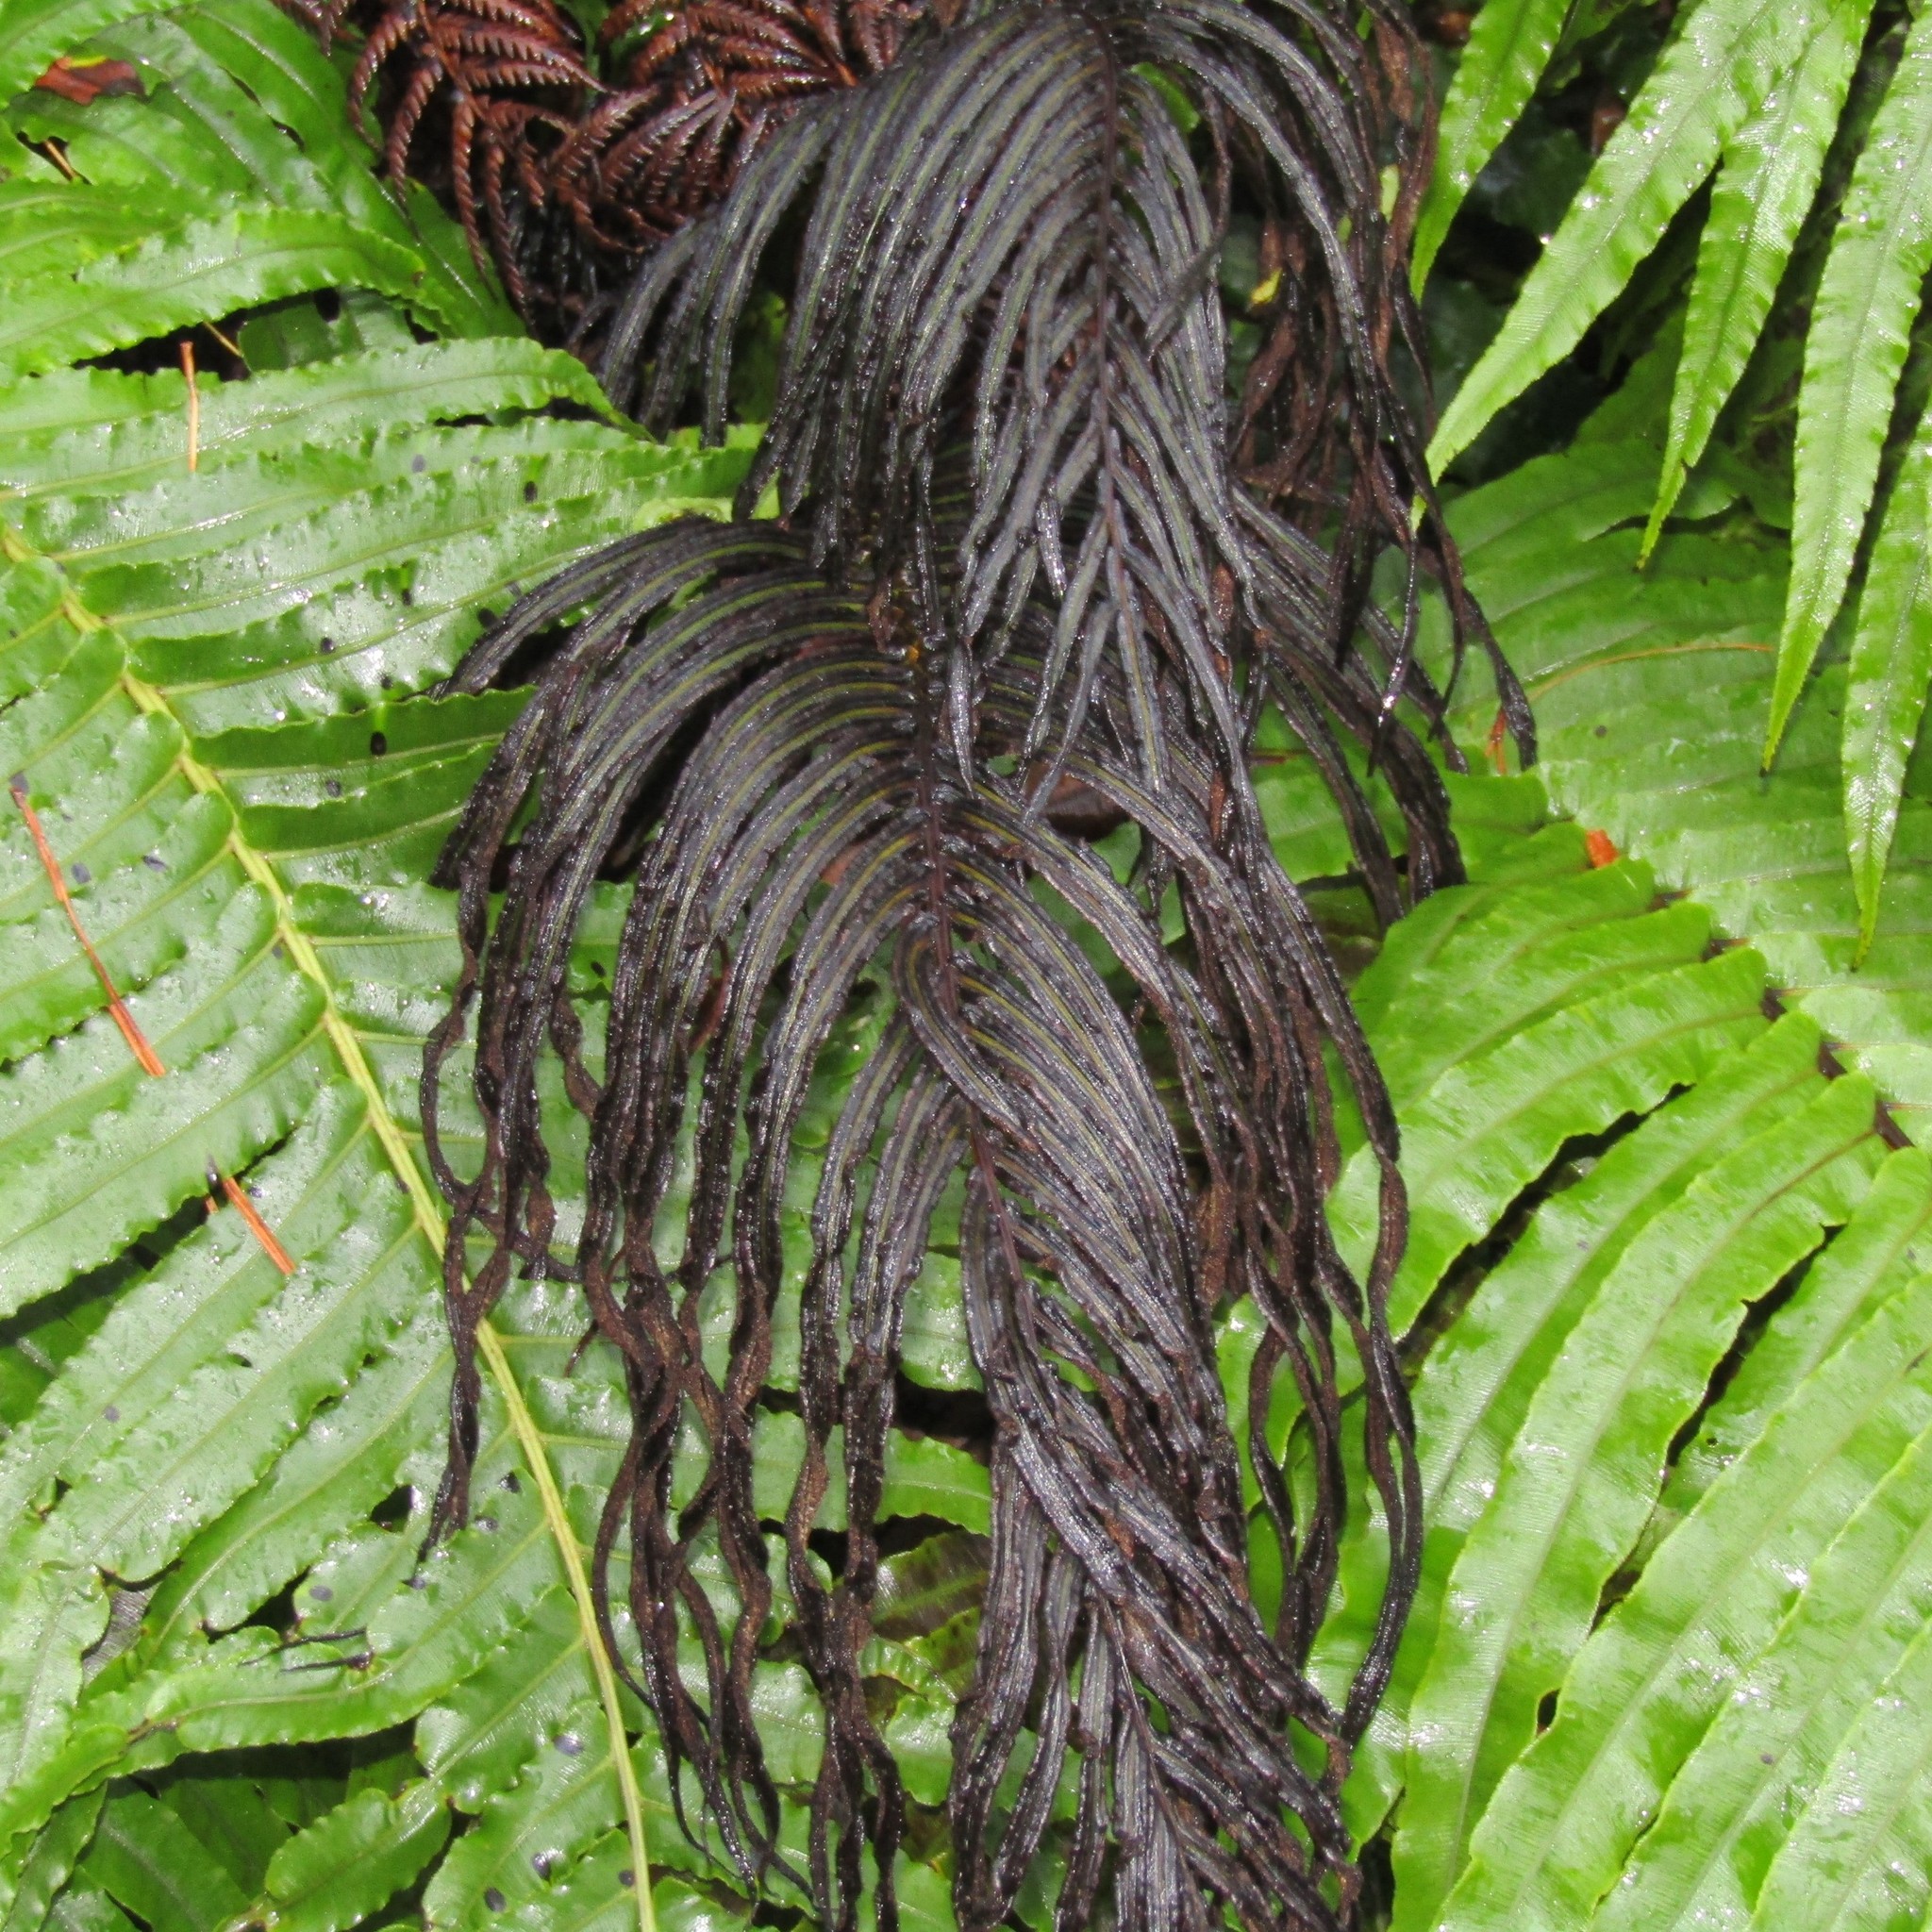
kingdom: Plantae
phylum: Tracheophyta
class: Polypodiopsida
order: Polypodiales
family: Blechnaceae
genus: Parablechnum
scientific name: Parablechnum novae-zelandiae
